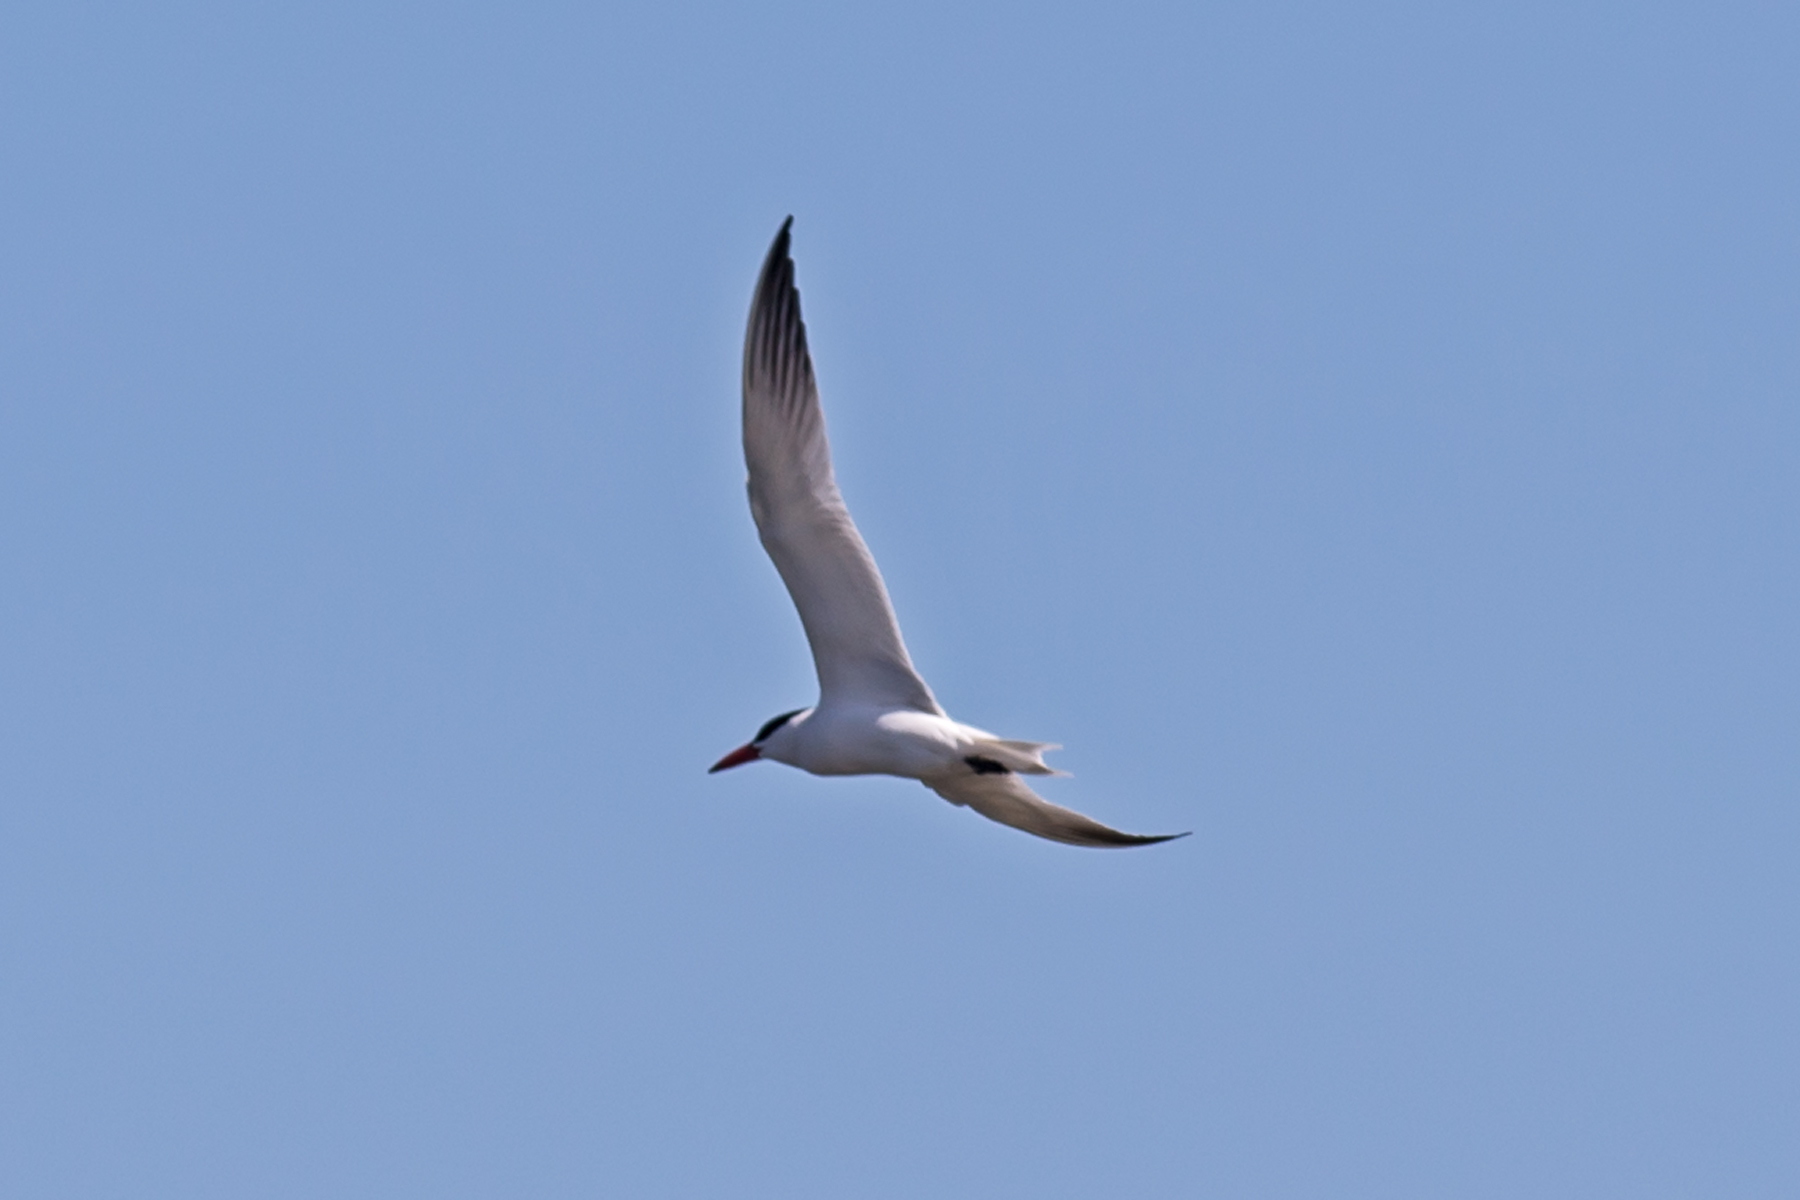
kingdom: Animalia
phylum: Chordata
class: Aves
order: Charadriiformes
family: Laridae
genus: Hydroprogne
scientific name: Hydroprogne caspia
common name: Caspian tern
